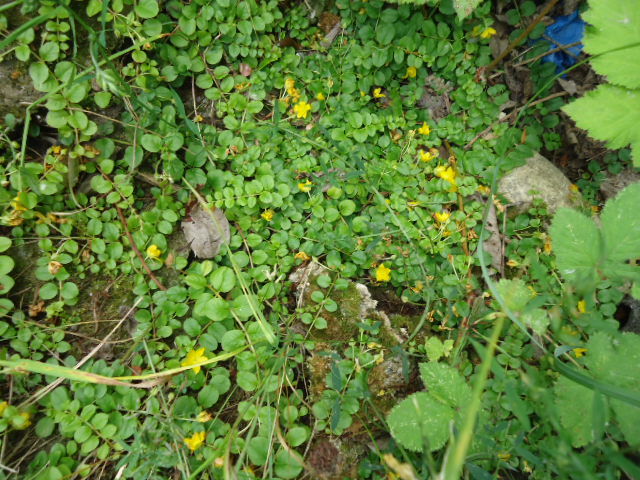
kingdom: Plantae
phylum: Tracheophyta
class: Magnoliopsida
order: Ericales
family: Primulaceae
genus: Lysimachia
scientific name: Lysimachia nummularia
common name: Moneywort
